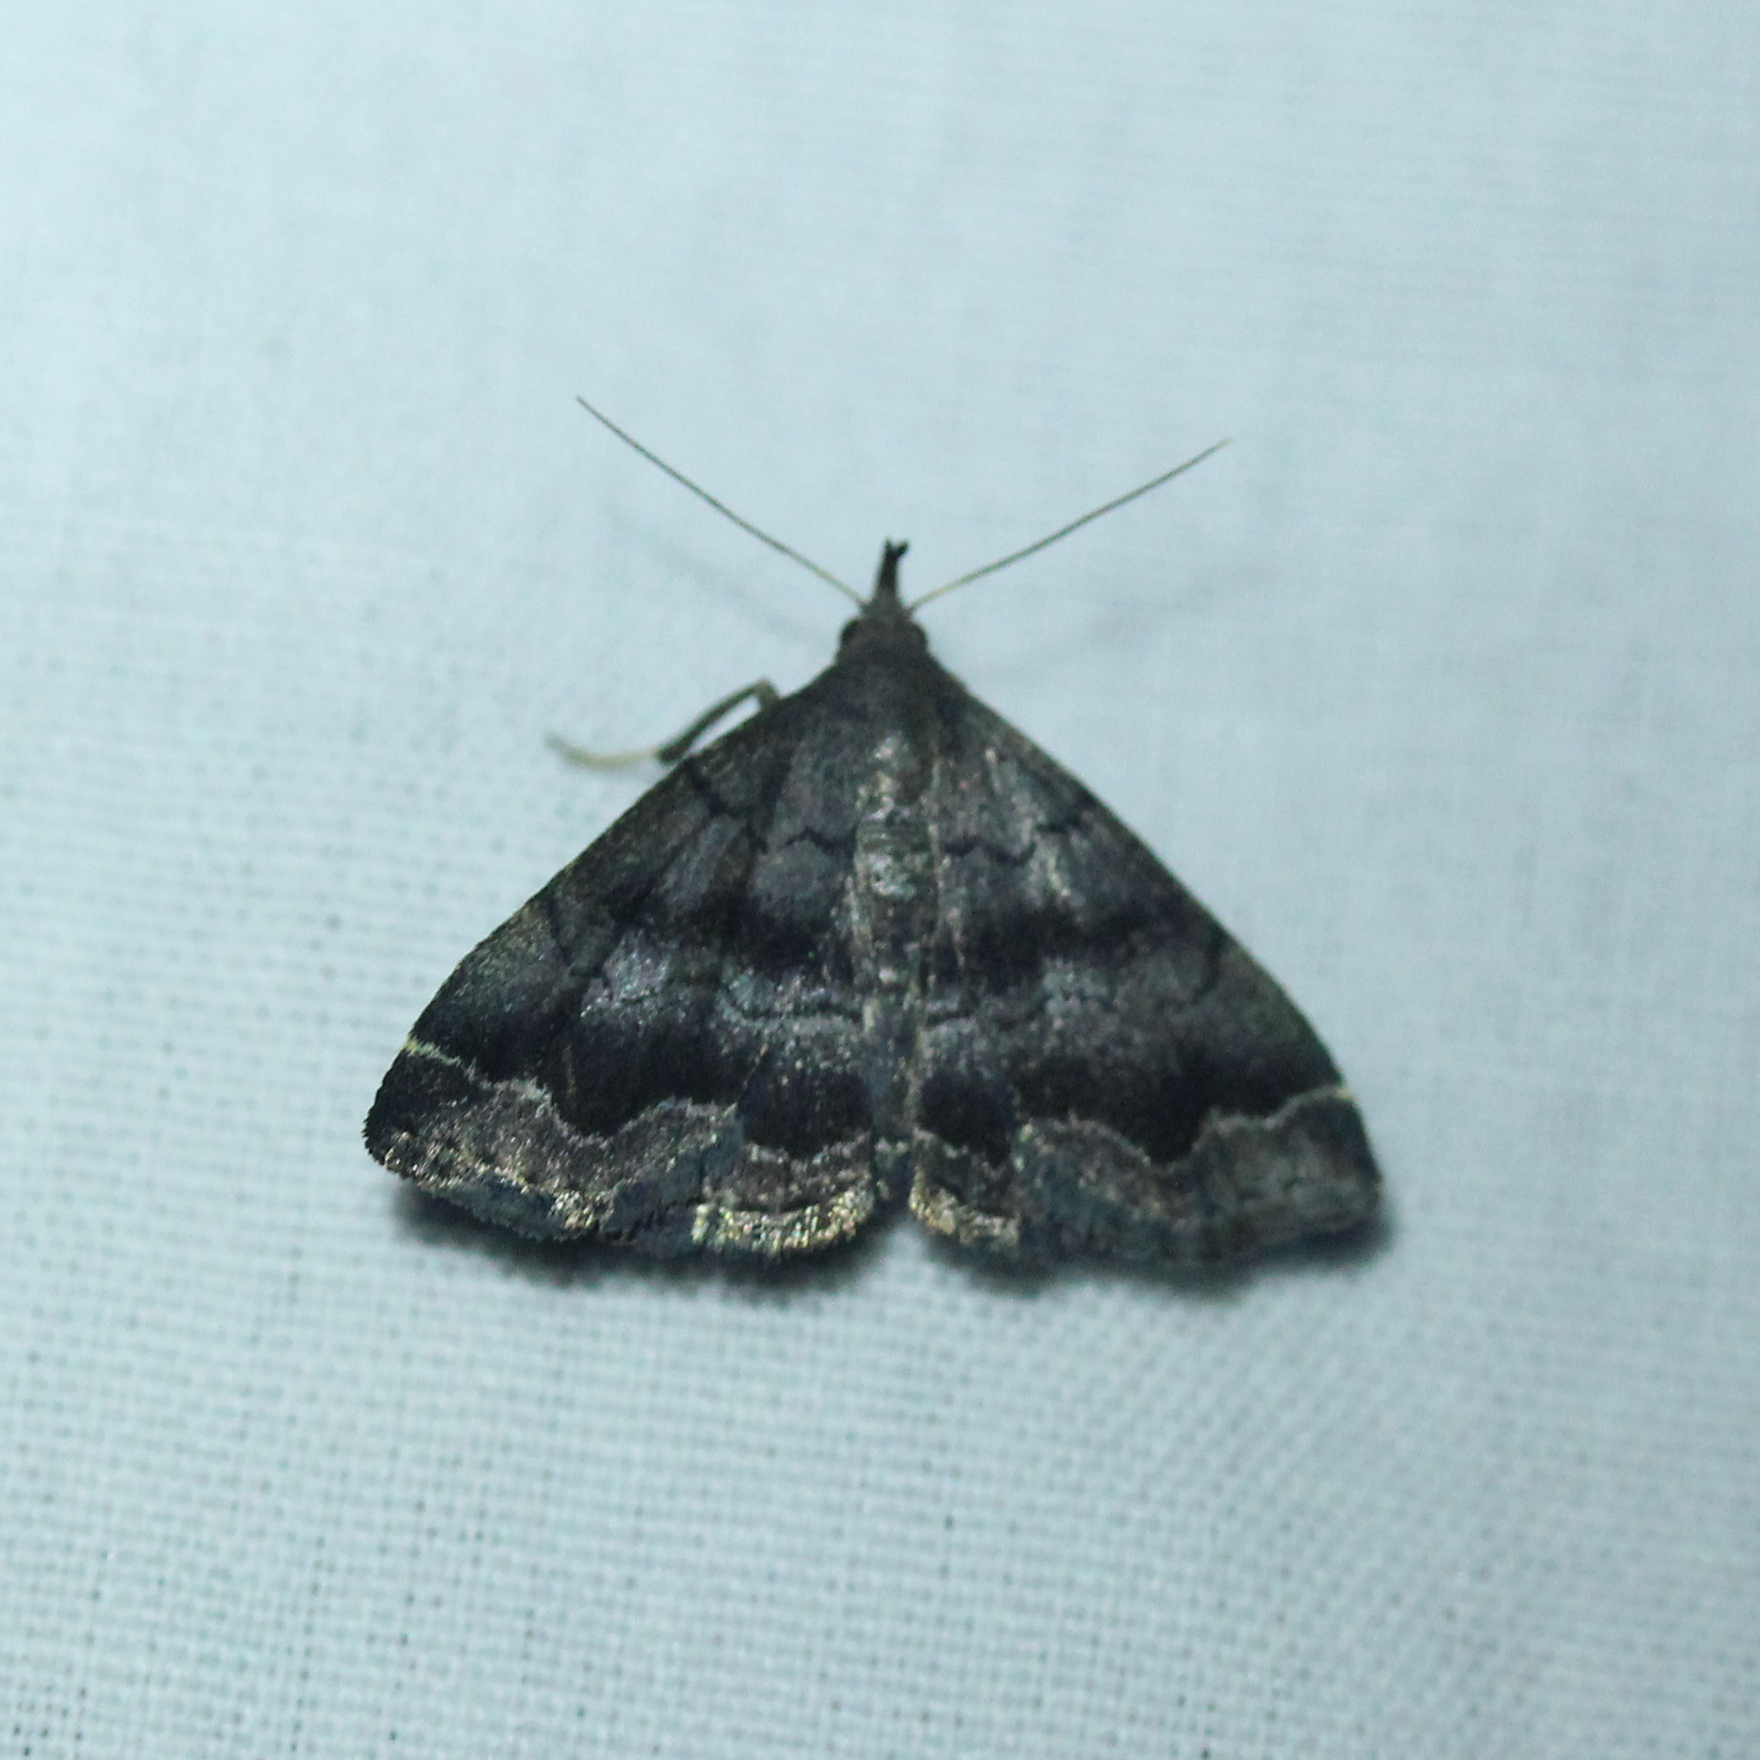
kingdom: Animalia
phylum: Arthropoda
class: Insecta
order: Lepidoptera
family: Erebidae
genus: Phalaenostola
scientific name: Phalaenostola larentioides
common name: Black-banded owlet
